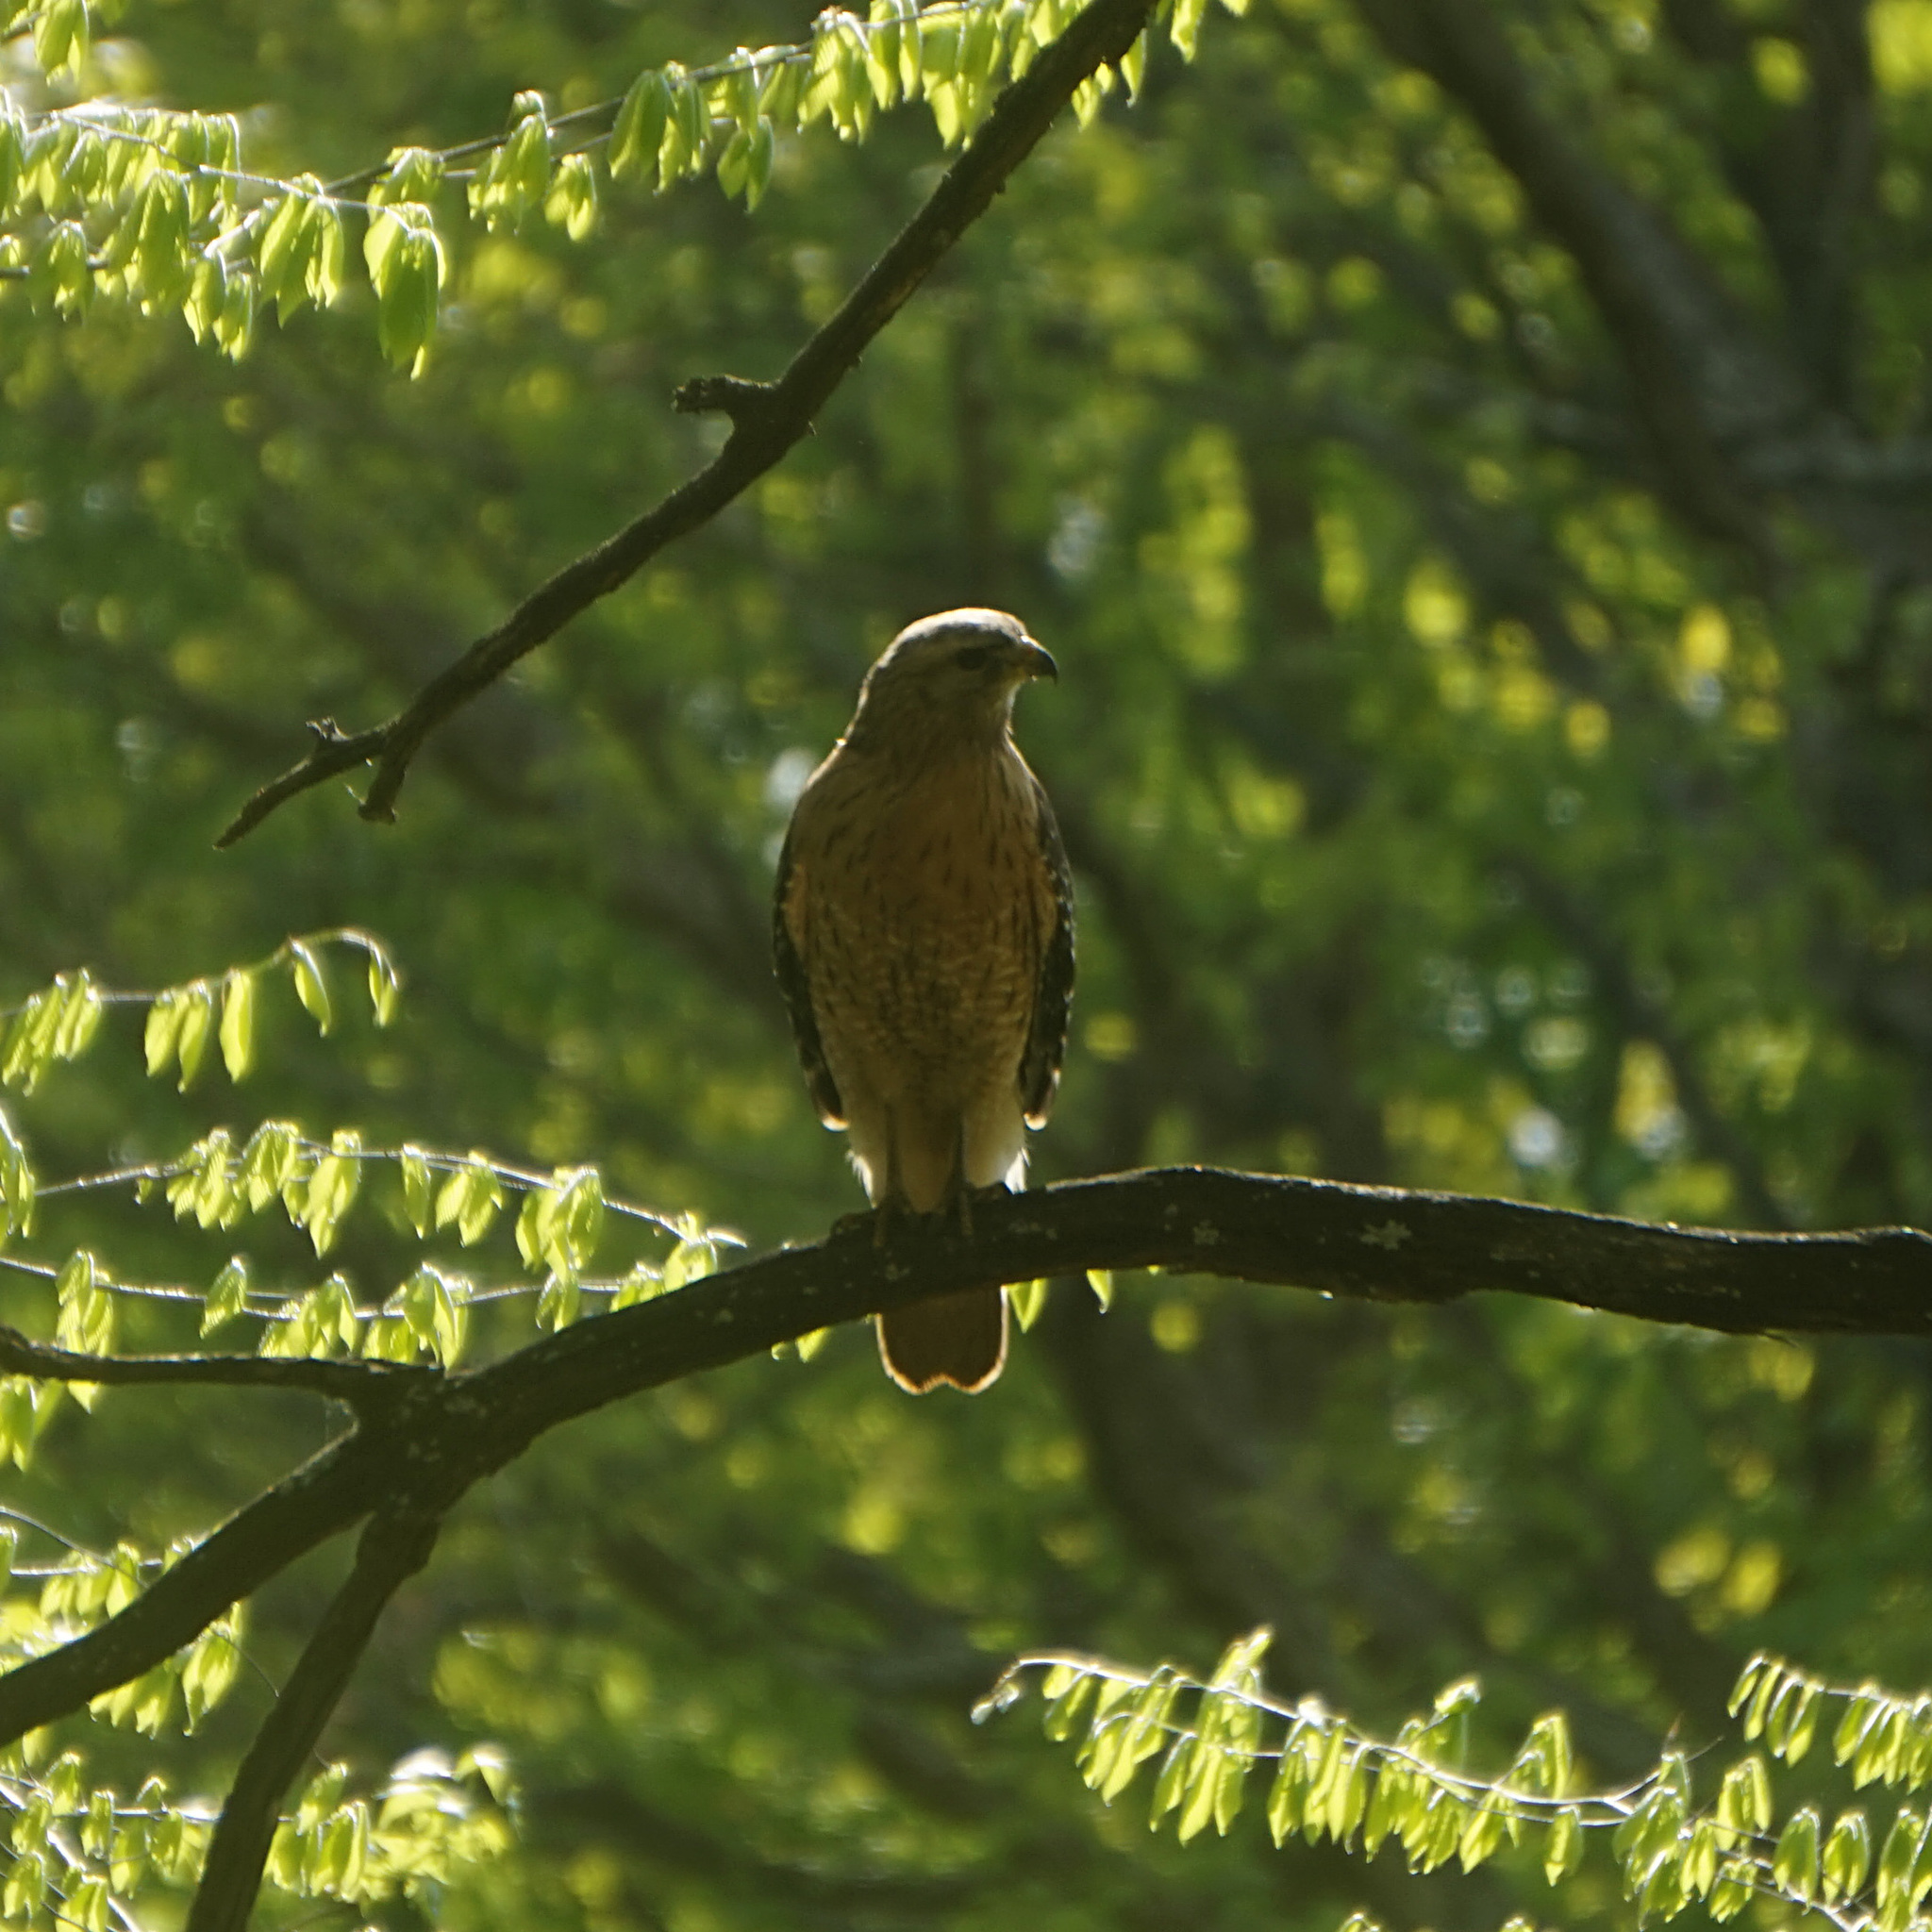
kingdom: Animalia
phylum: Chordata
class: Aves
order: Accipitriformes
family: Accipitridae
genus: Buteo
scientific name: Buteo lineatus
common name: Red-shouldered hawk
